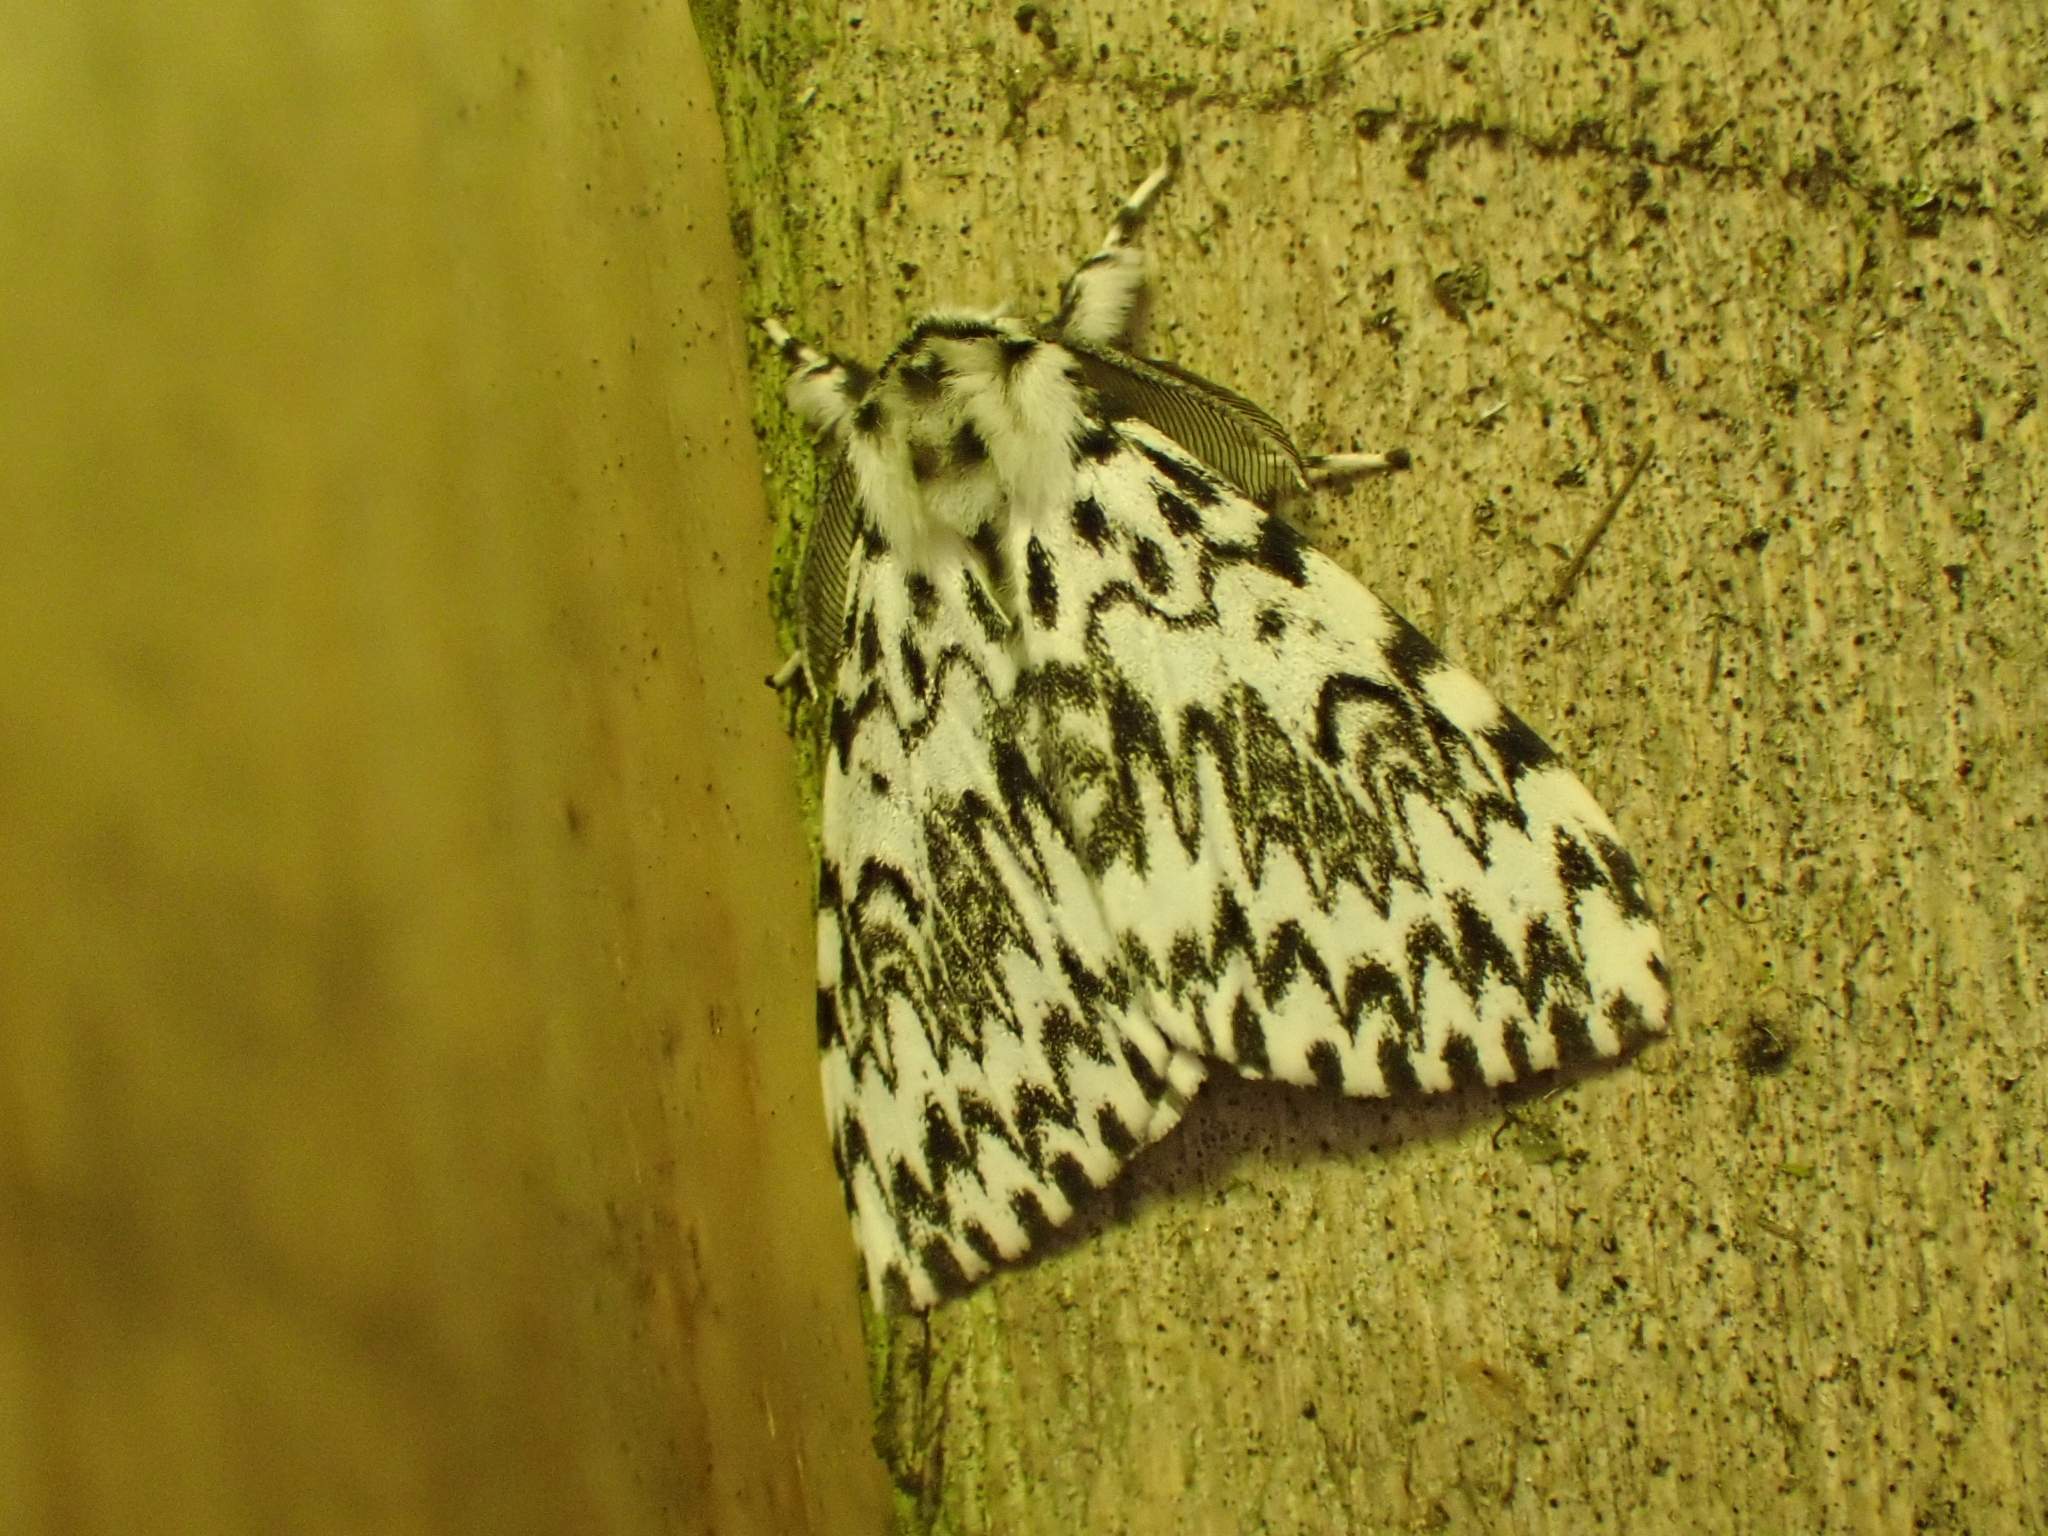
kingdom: Animalia
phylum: Arthropoda
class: Insecta
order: Lepidoptera
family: Erebidae
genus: Lymantria
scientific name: Lymantria monacha
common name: Black arches
